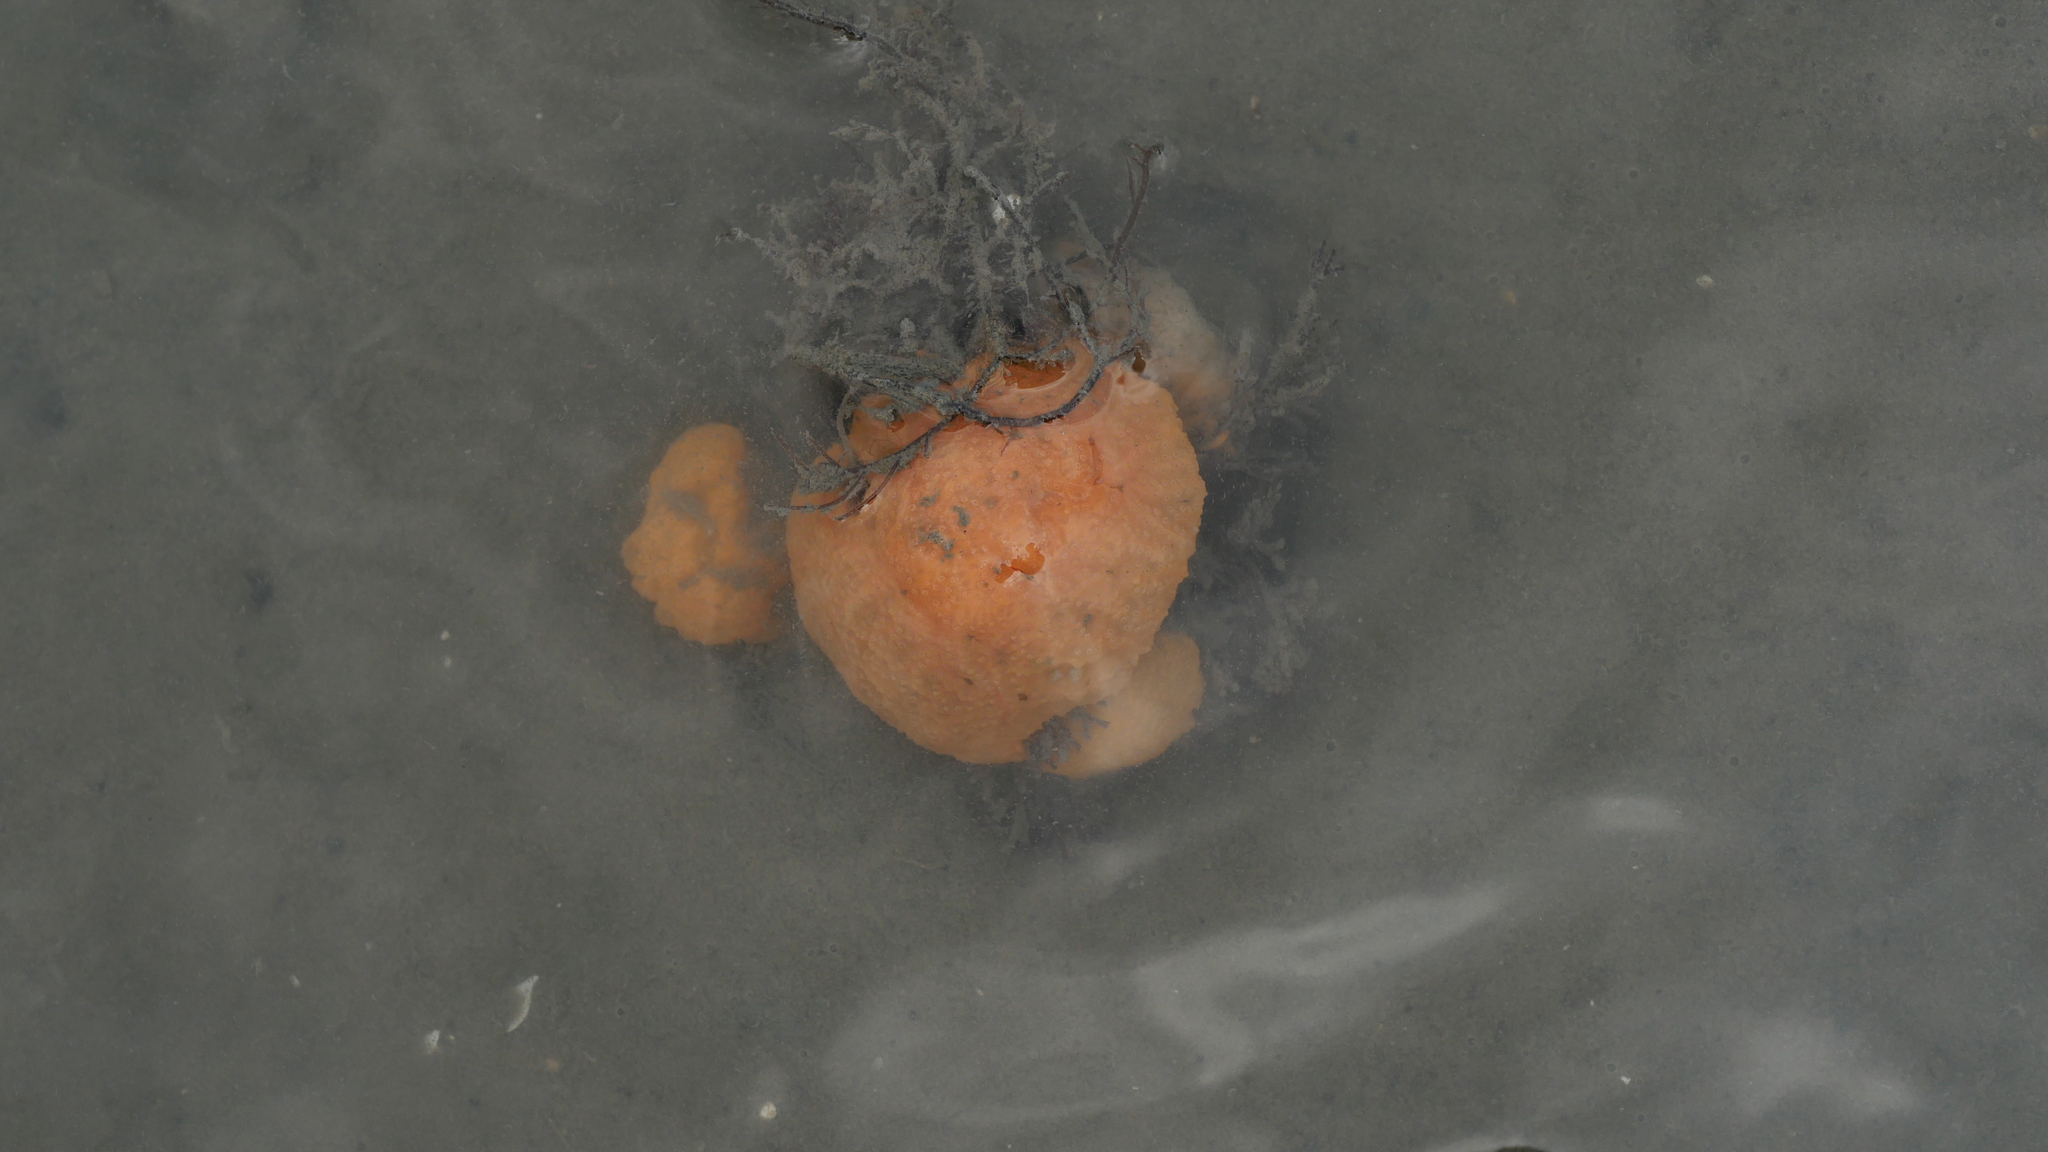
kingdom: Animalia
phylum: Chordata
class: Ascidiacea
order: Aplousobranchia
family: Polyclinidae
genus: Aplidium
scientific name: Aplidium stellatum
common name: Atlantic sea pork
